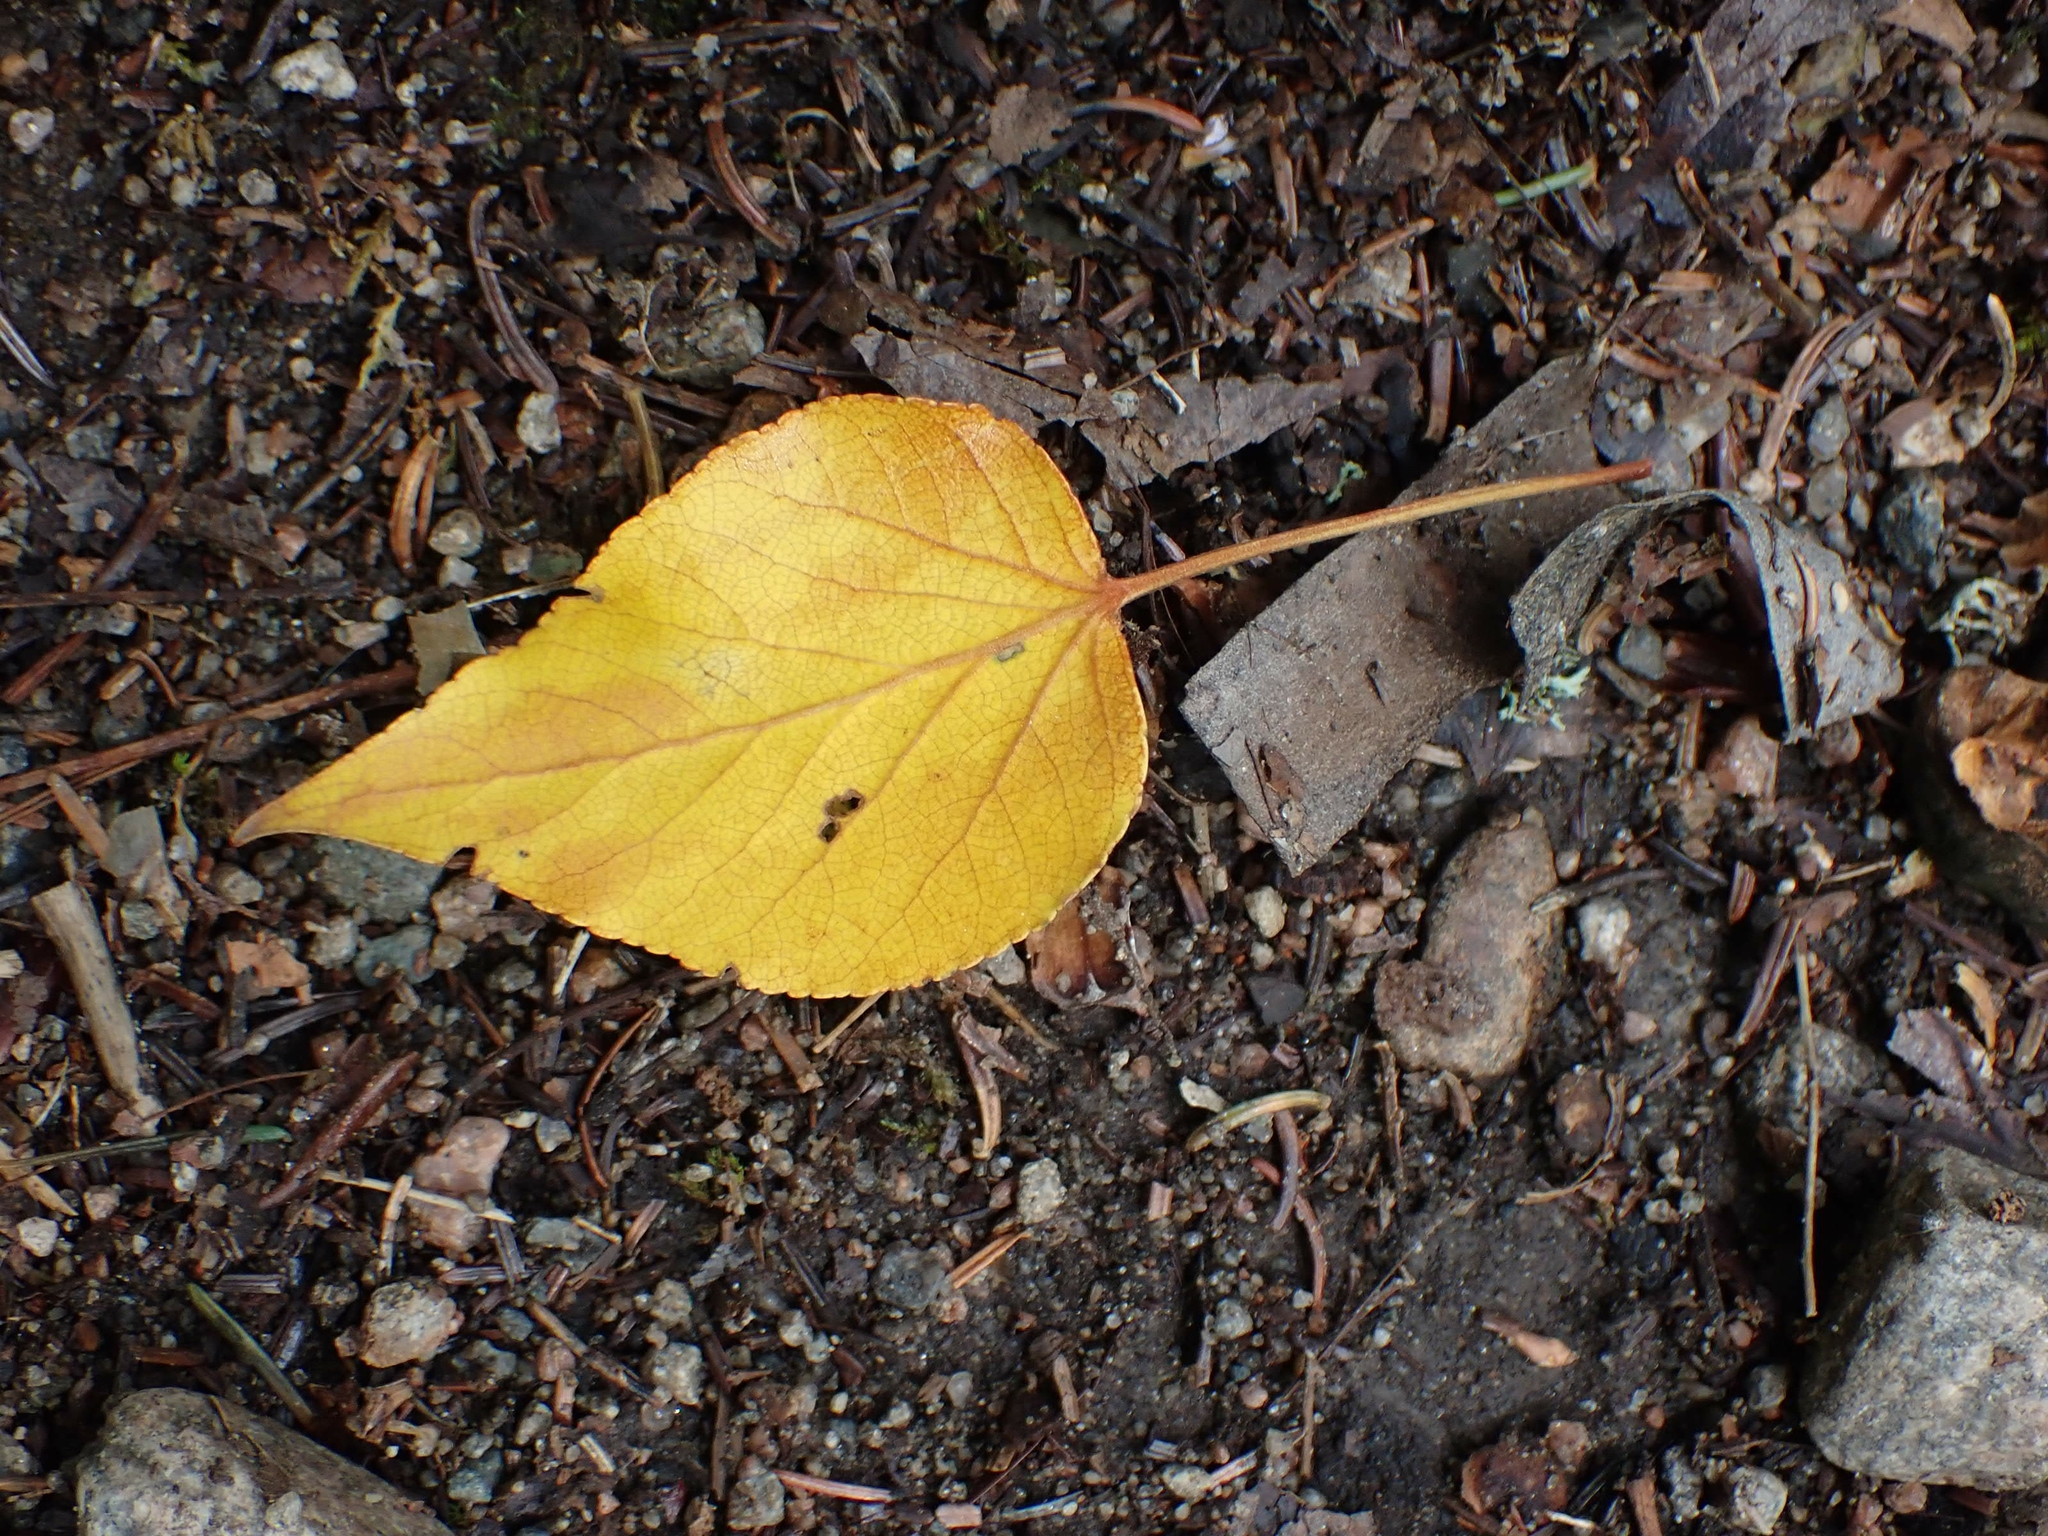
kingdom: Plantae
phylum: Tracheophyta
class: Magnoliopsida
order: Malpighiales
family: Salicaceae
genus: Populus
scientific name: Populus balsamifera
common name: Balsam poplar
